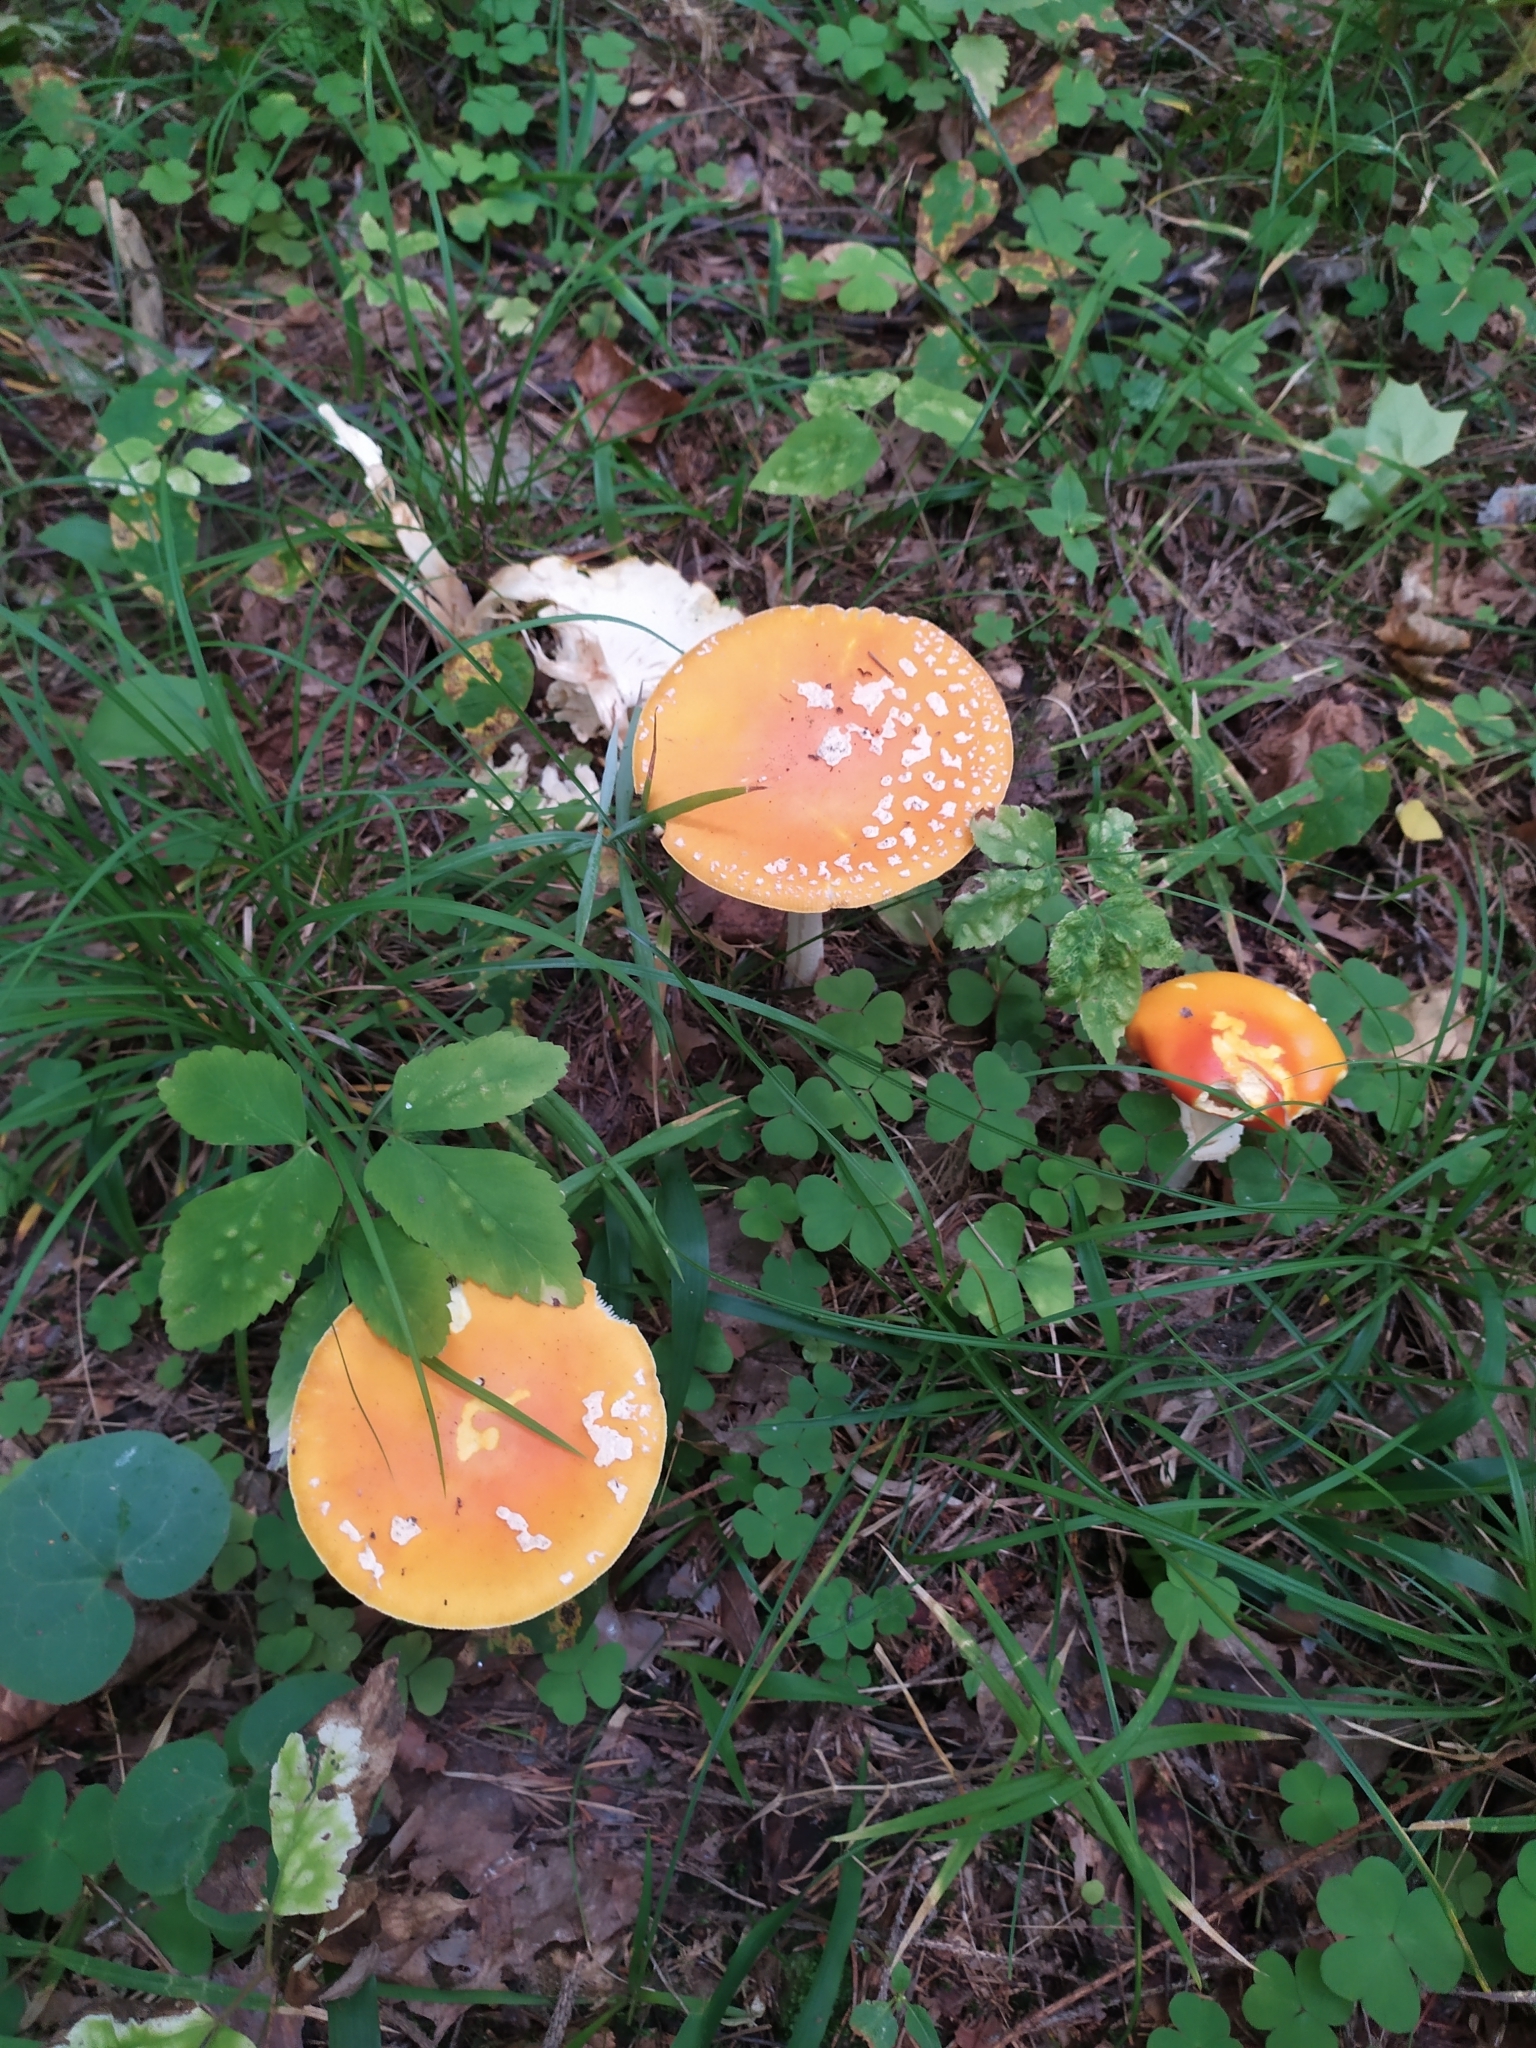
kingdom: Fungi
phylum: Basidiomycota
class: Agaricomycetes
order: Agaricales
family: Amanitaceae
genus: Amanita
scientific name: Amanita muscaria
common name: Fly agaric
